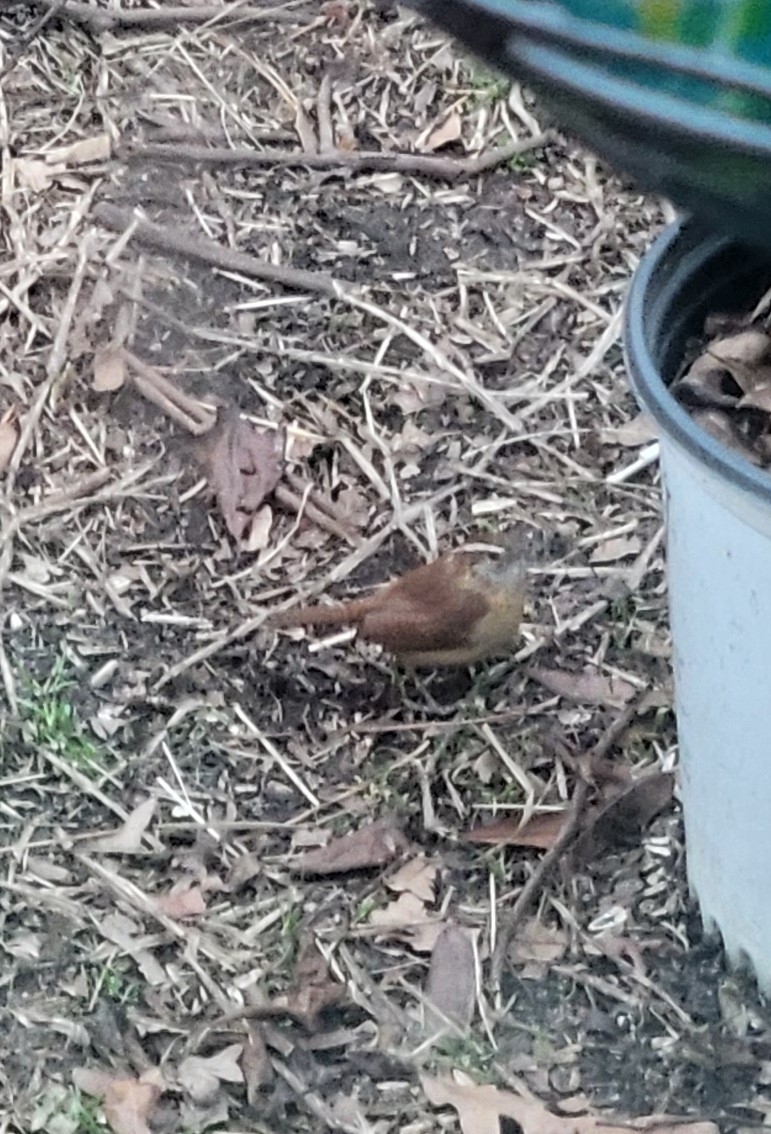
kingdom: Animalia
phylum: Chordata
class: Aves
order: Passeriformes
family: Troglodytidae
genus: Thryothorus
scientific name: Thryothorus ludovicianus
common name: Carolina wren
